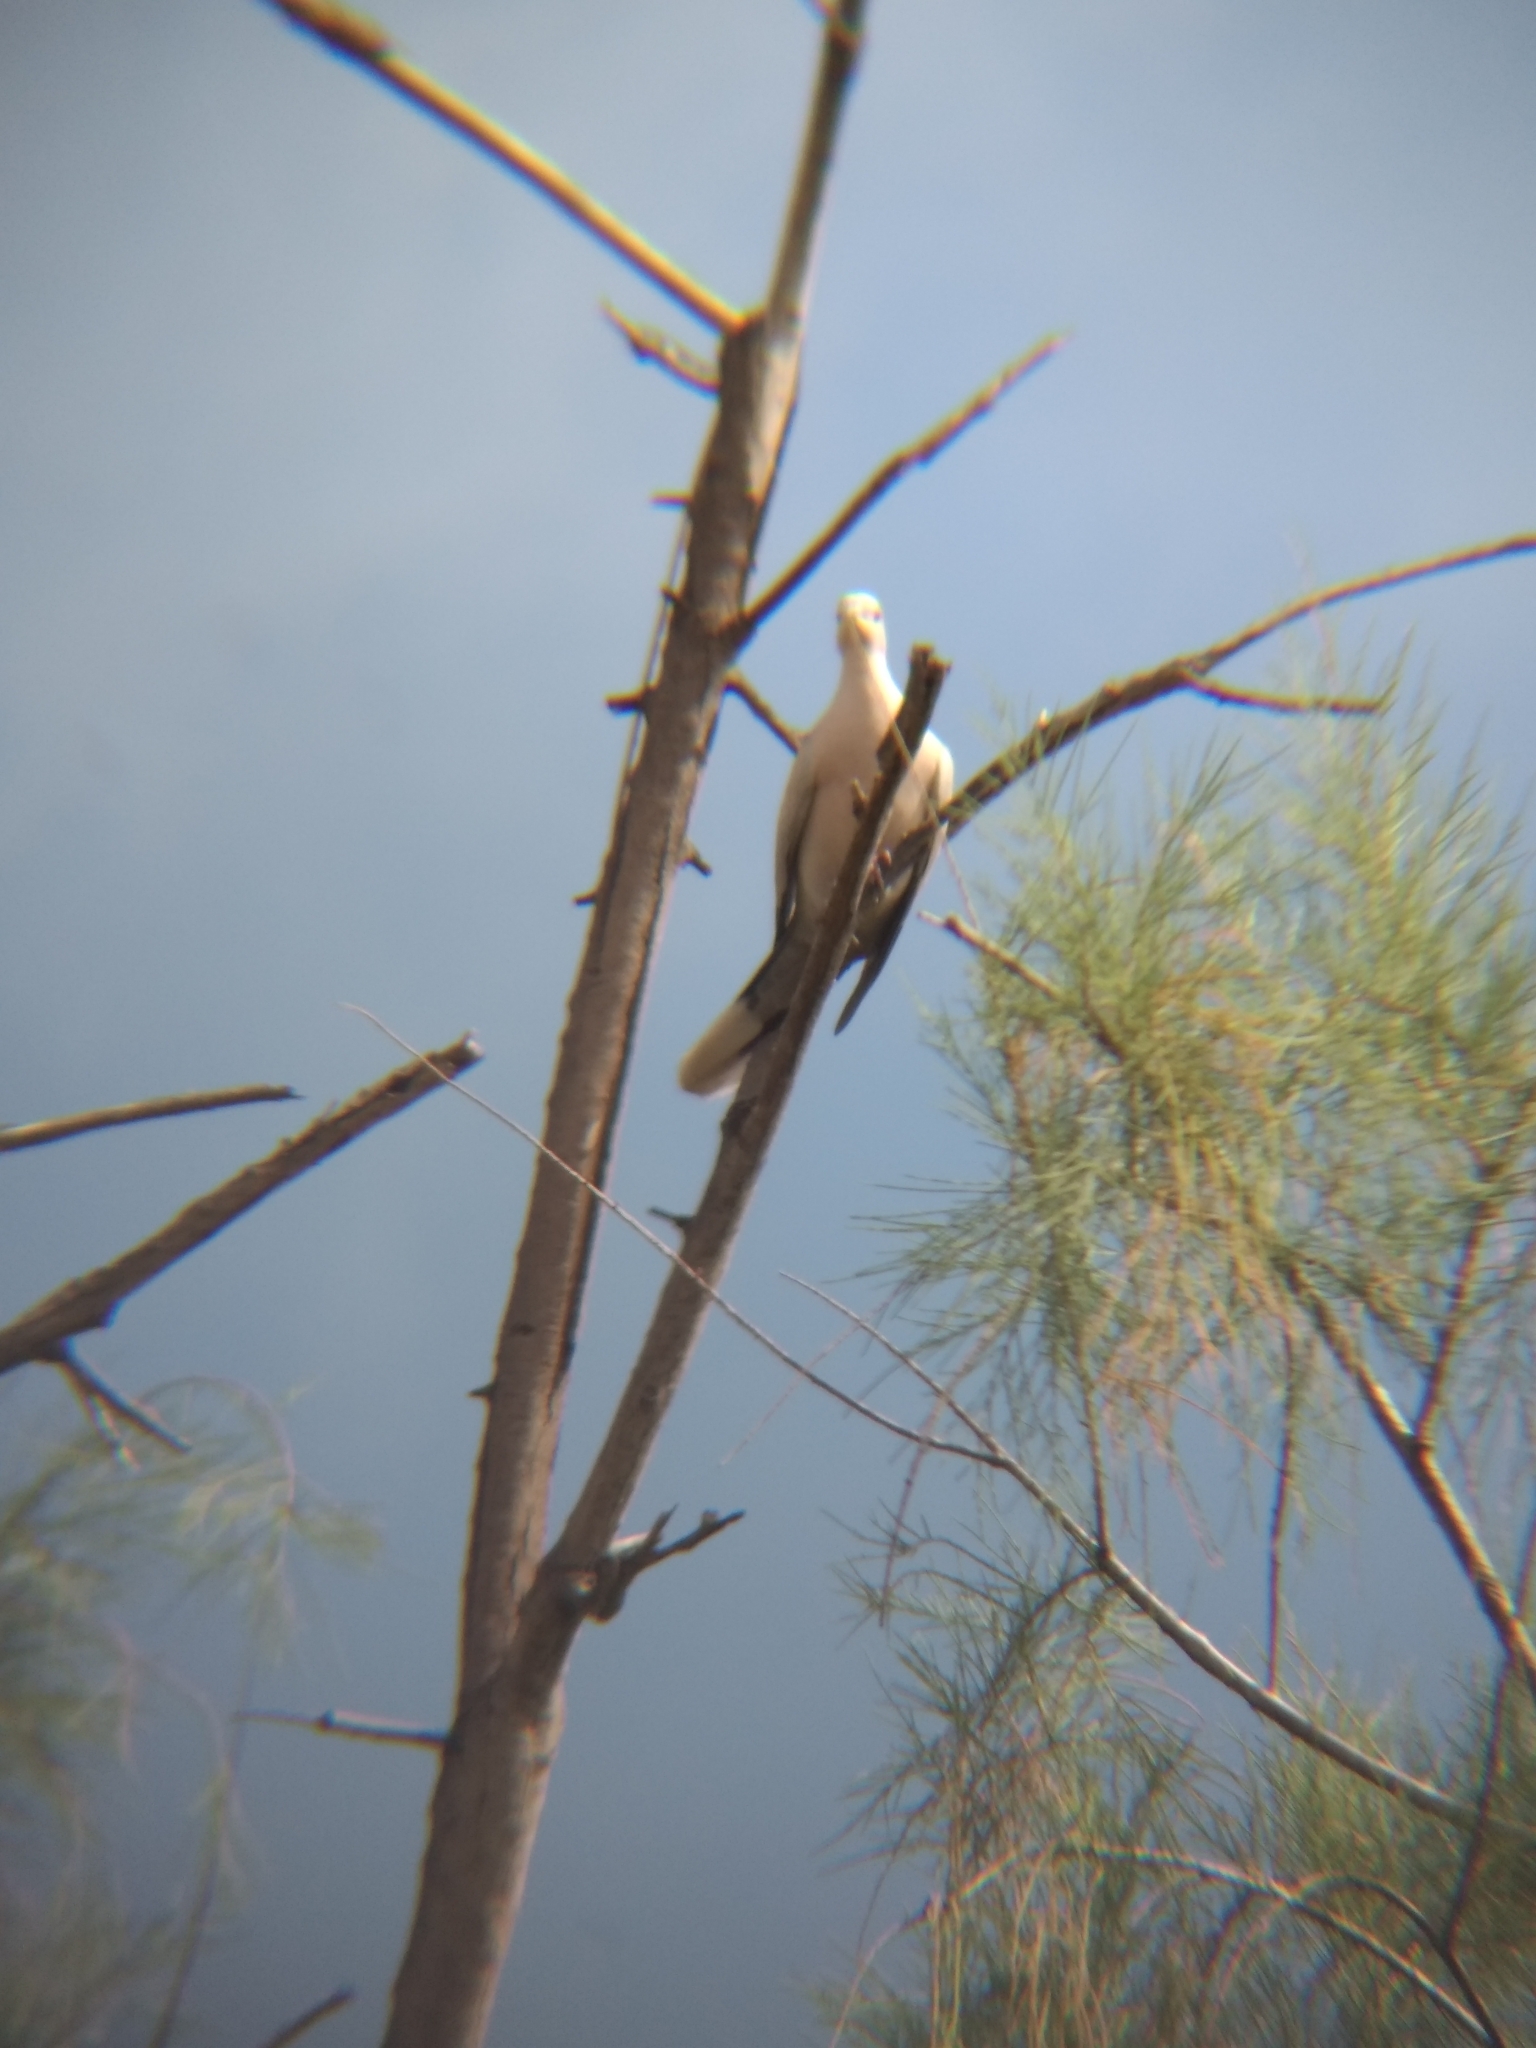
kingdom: Animalia
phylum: Chordata
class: Aves
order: Columbiformes
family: Columbidae
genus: Streptopelia
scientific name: Streptopelia decaocto
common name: Eurasian collared dove
